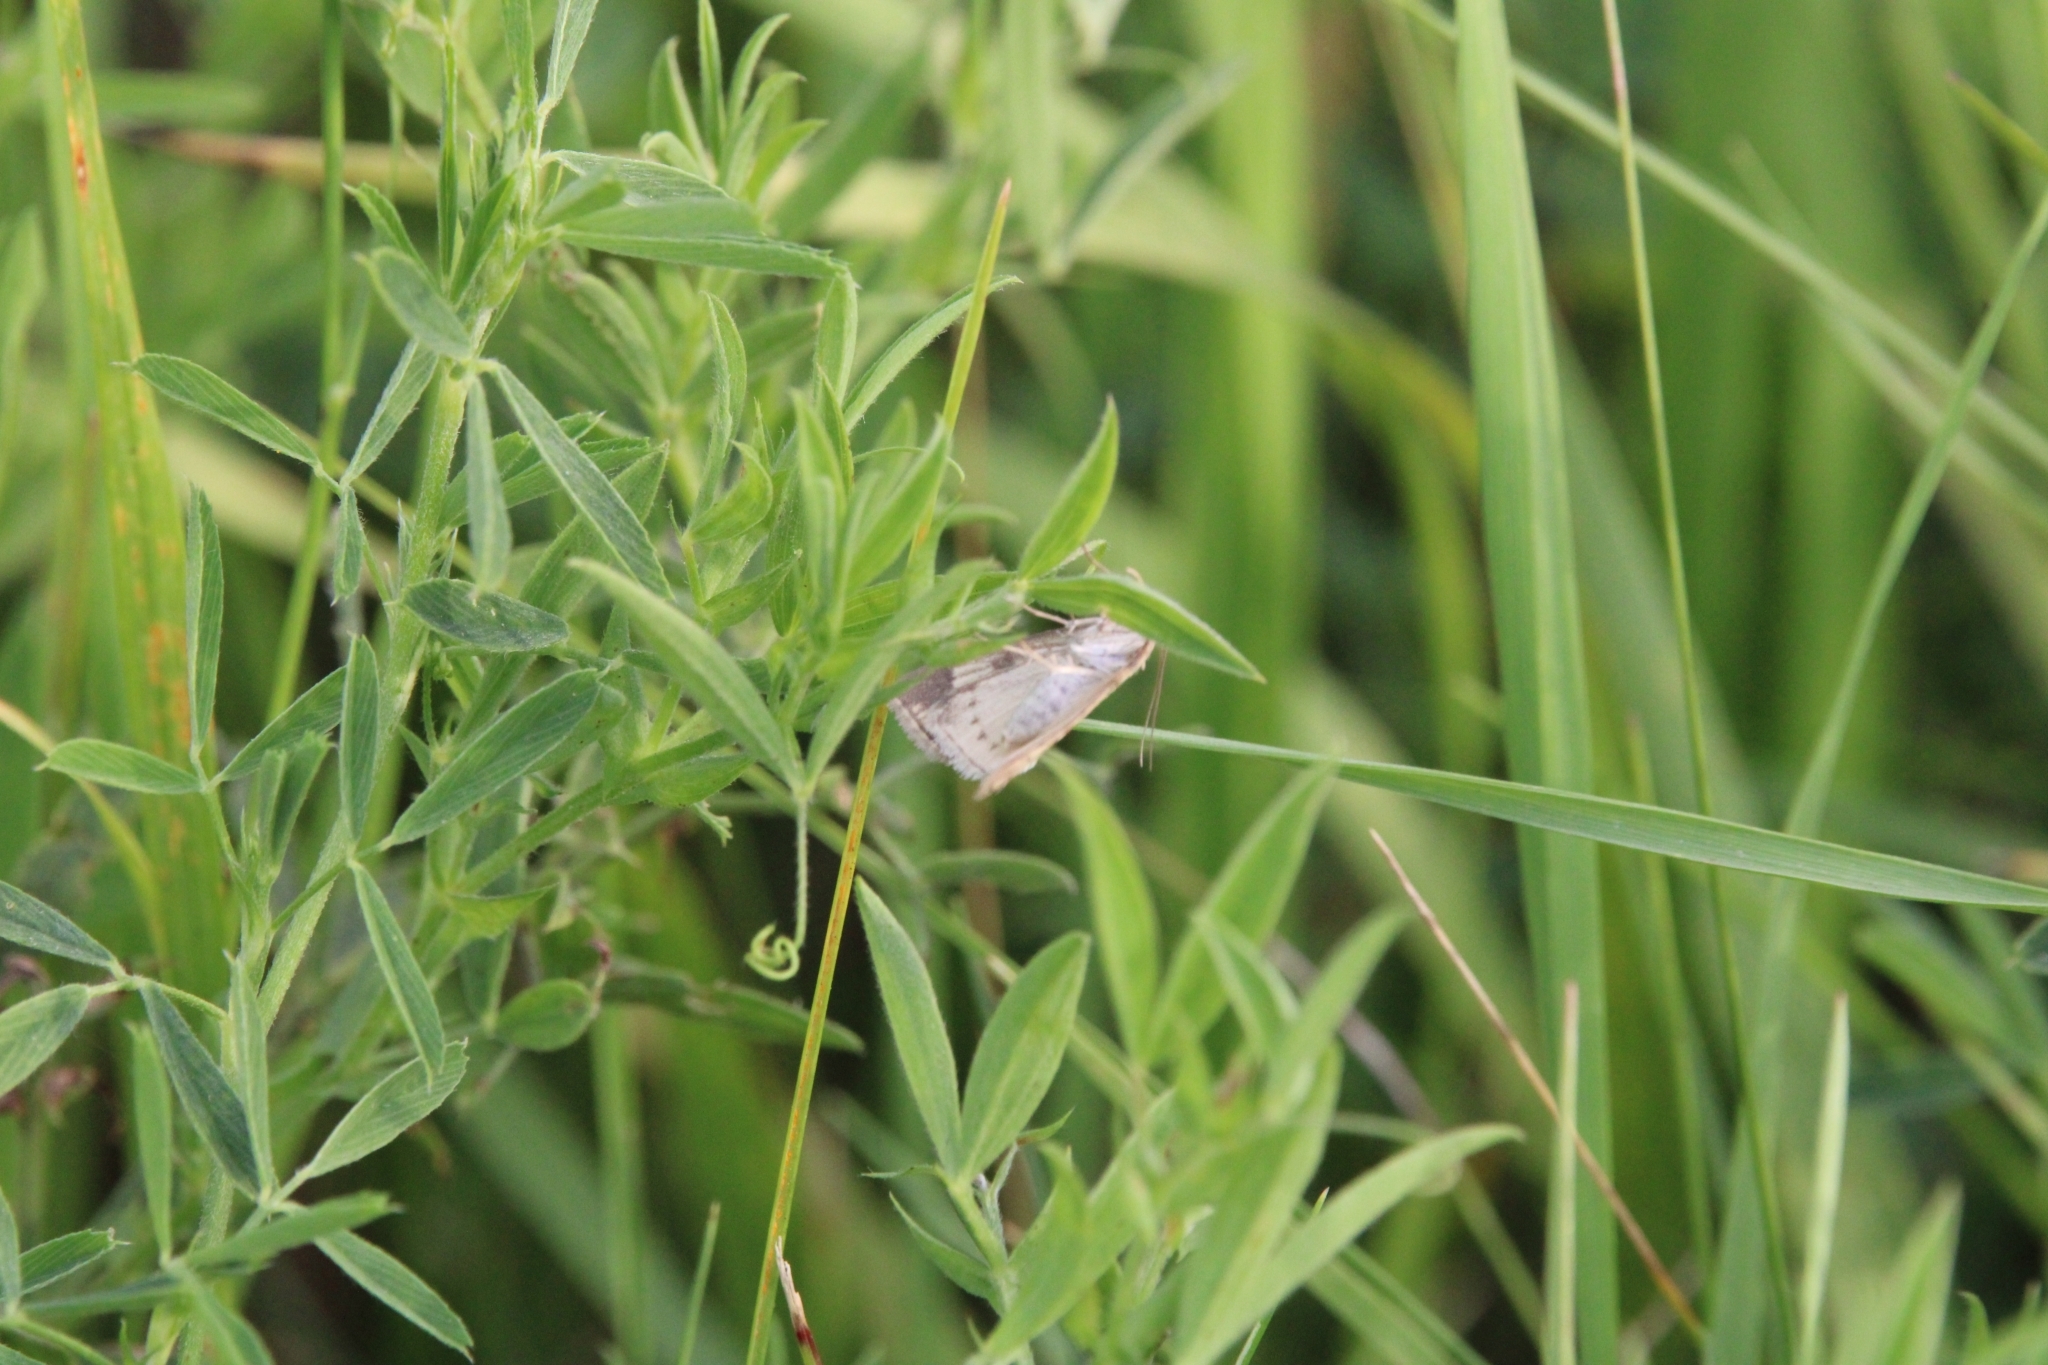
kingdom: Animalia
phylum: Arthropoda
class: Insecta
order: Lepidoptera
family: Geometridae
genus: Scotopteryx
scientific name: Scotopteryx chenopodiata
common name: Shaded broad-bar
